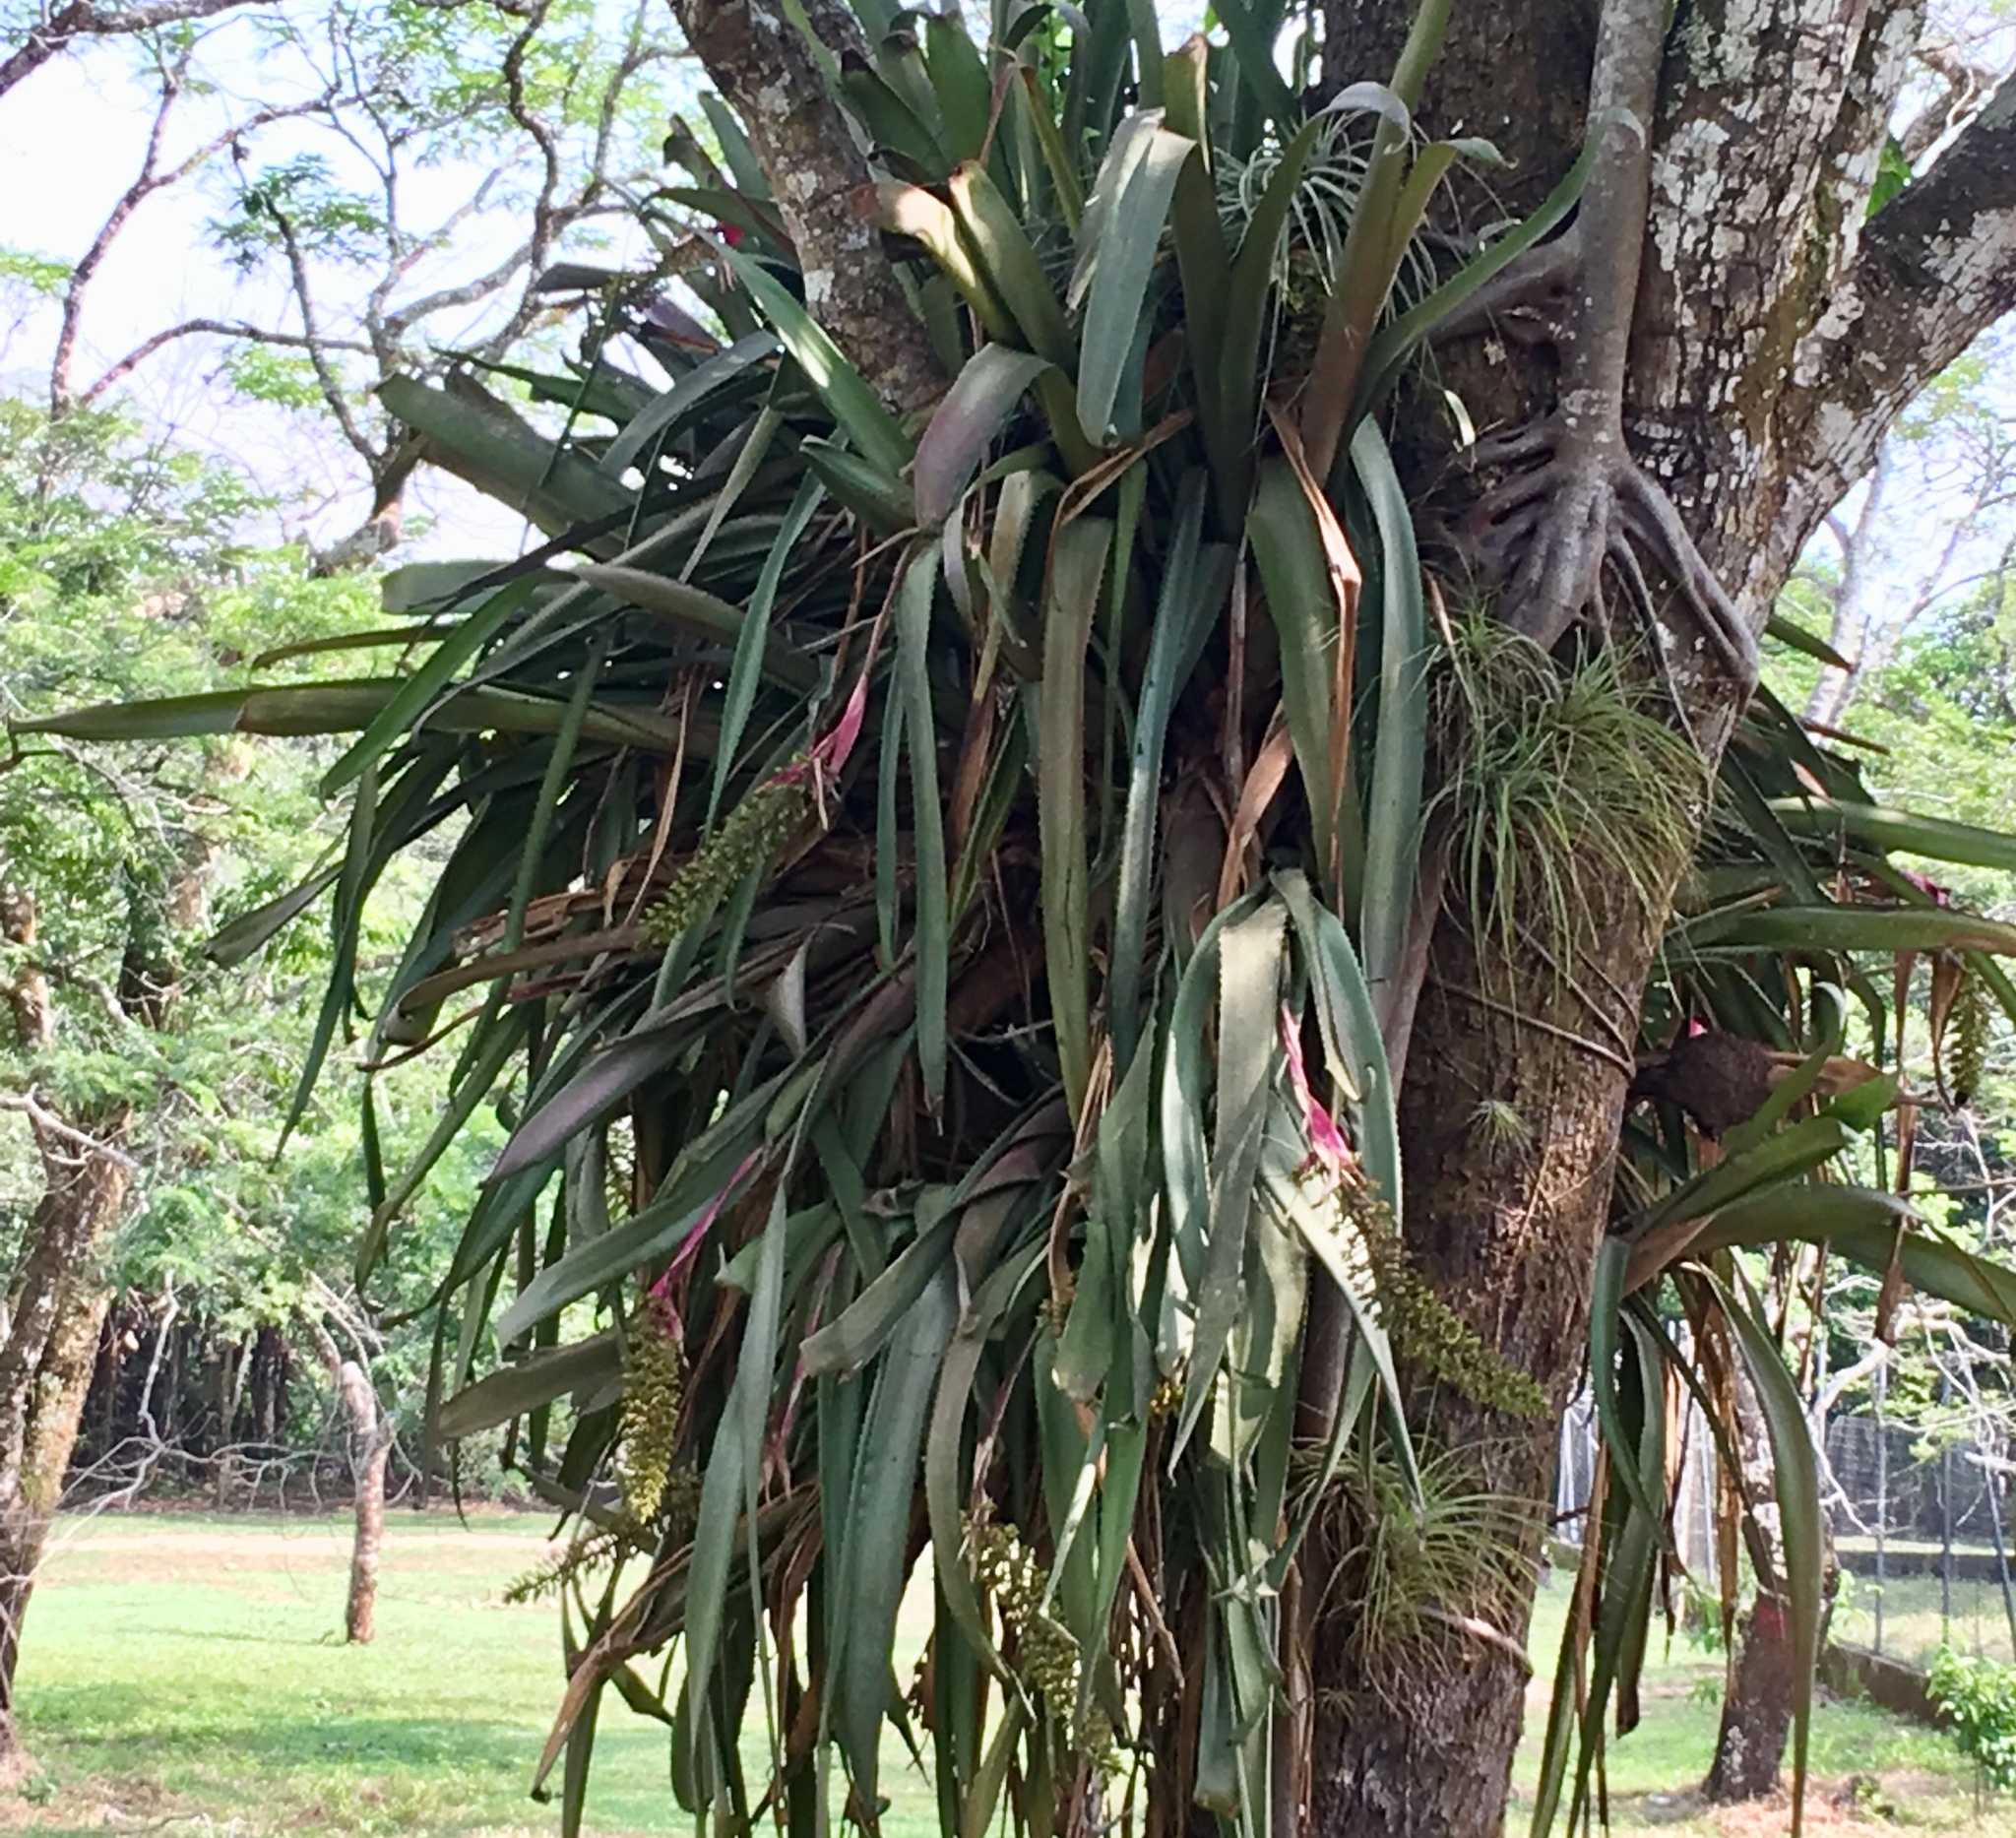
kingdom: Plantae
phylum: Tracheophyta
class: Liliopsida
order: Poales
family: Bromeliaceae
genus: Aechmea
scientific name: Aechmea tocantina
